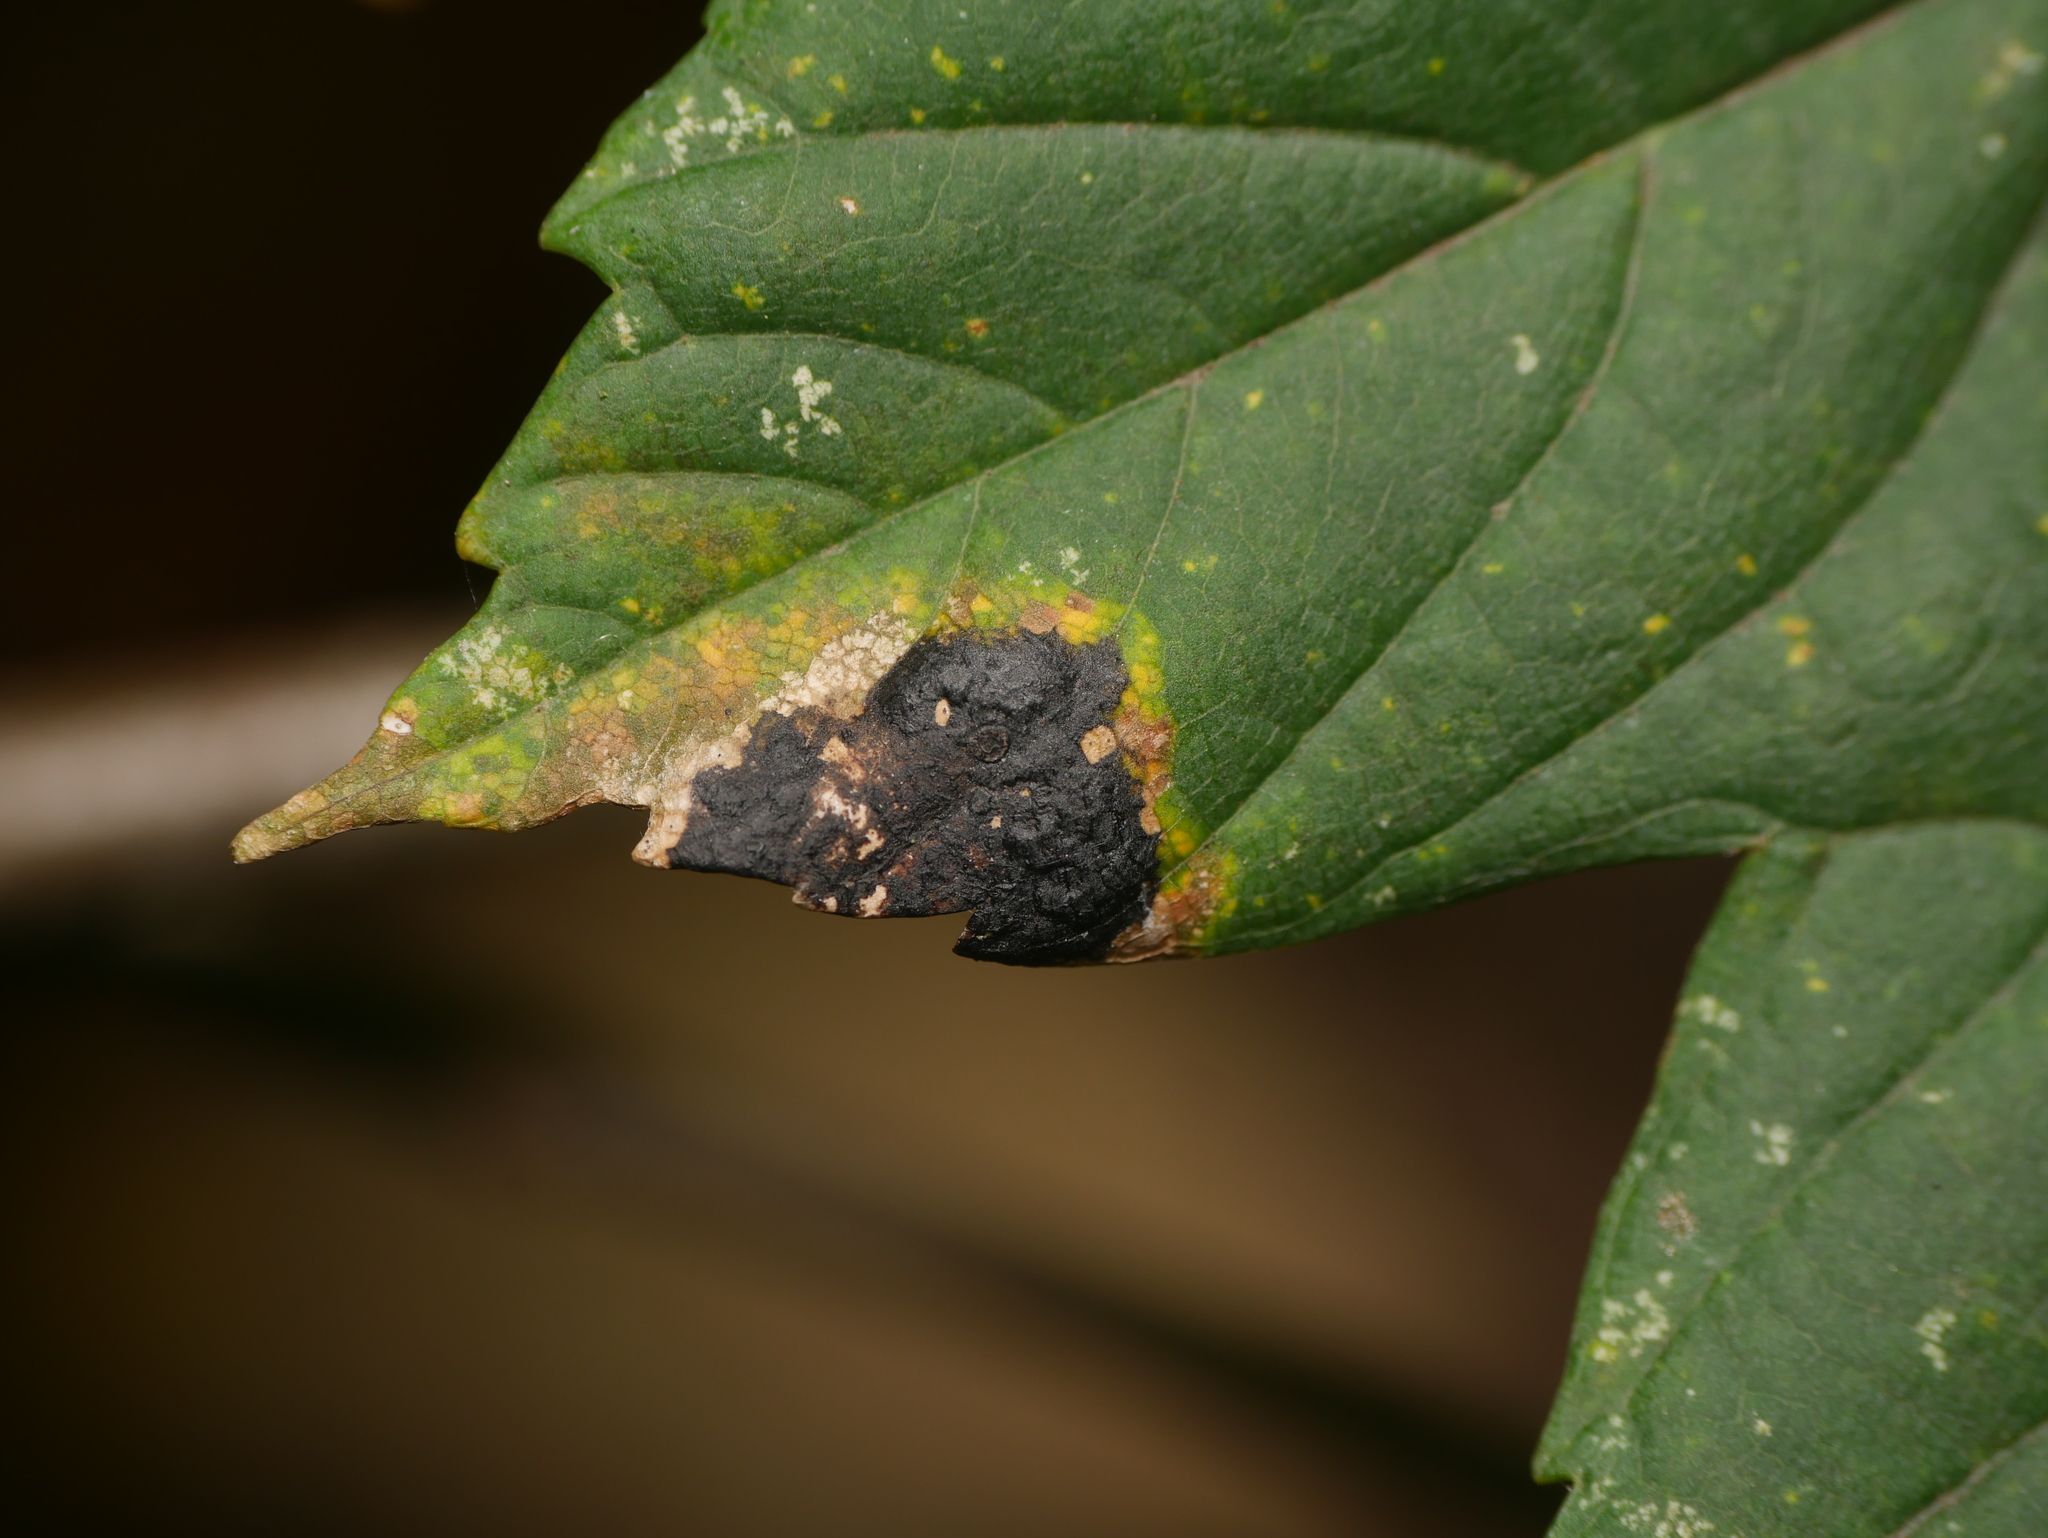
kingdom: Fungi
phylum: Ascomycota
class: Leotiomycetes
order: Rhytismatales
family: Rhytismataceae
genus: Rhytisma
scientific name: Rhytisma acerinum
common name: European tar spot
